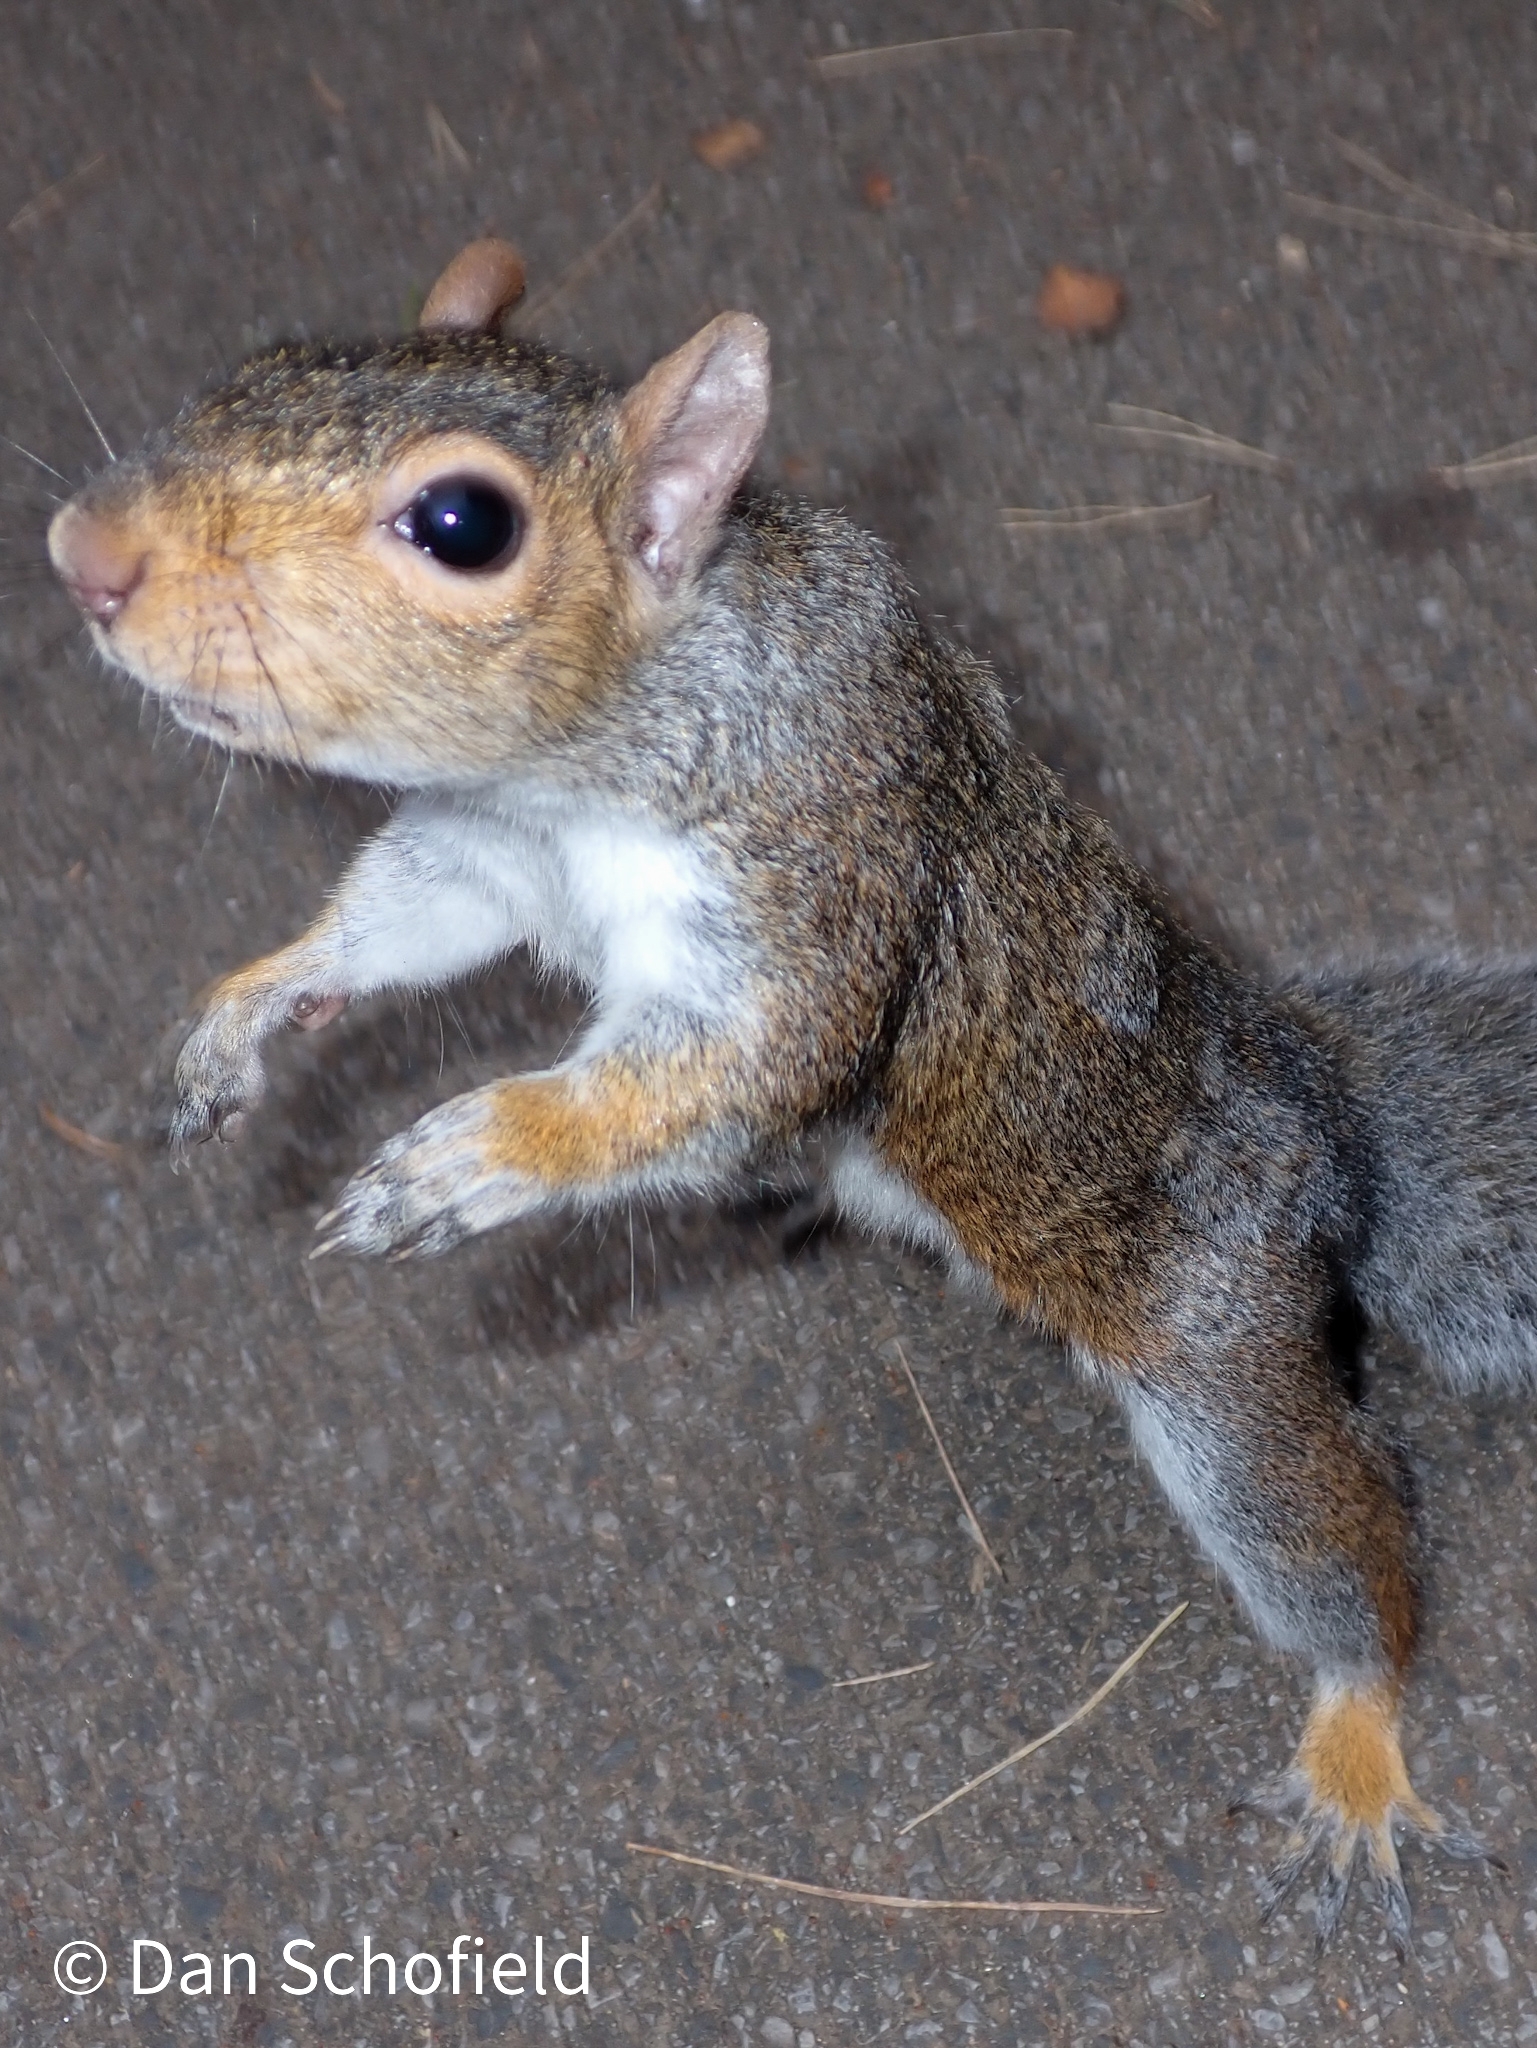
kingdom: Animalia
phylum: Chordata
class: Mammalia
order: Rodentia
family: Sciuridae
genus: Sciurus
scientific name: Sciurus carolinensis
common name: Eastern gray squirrel
